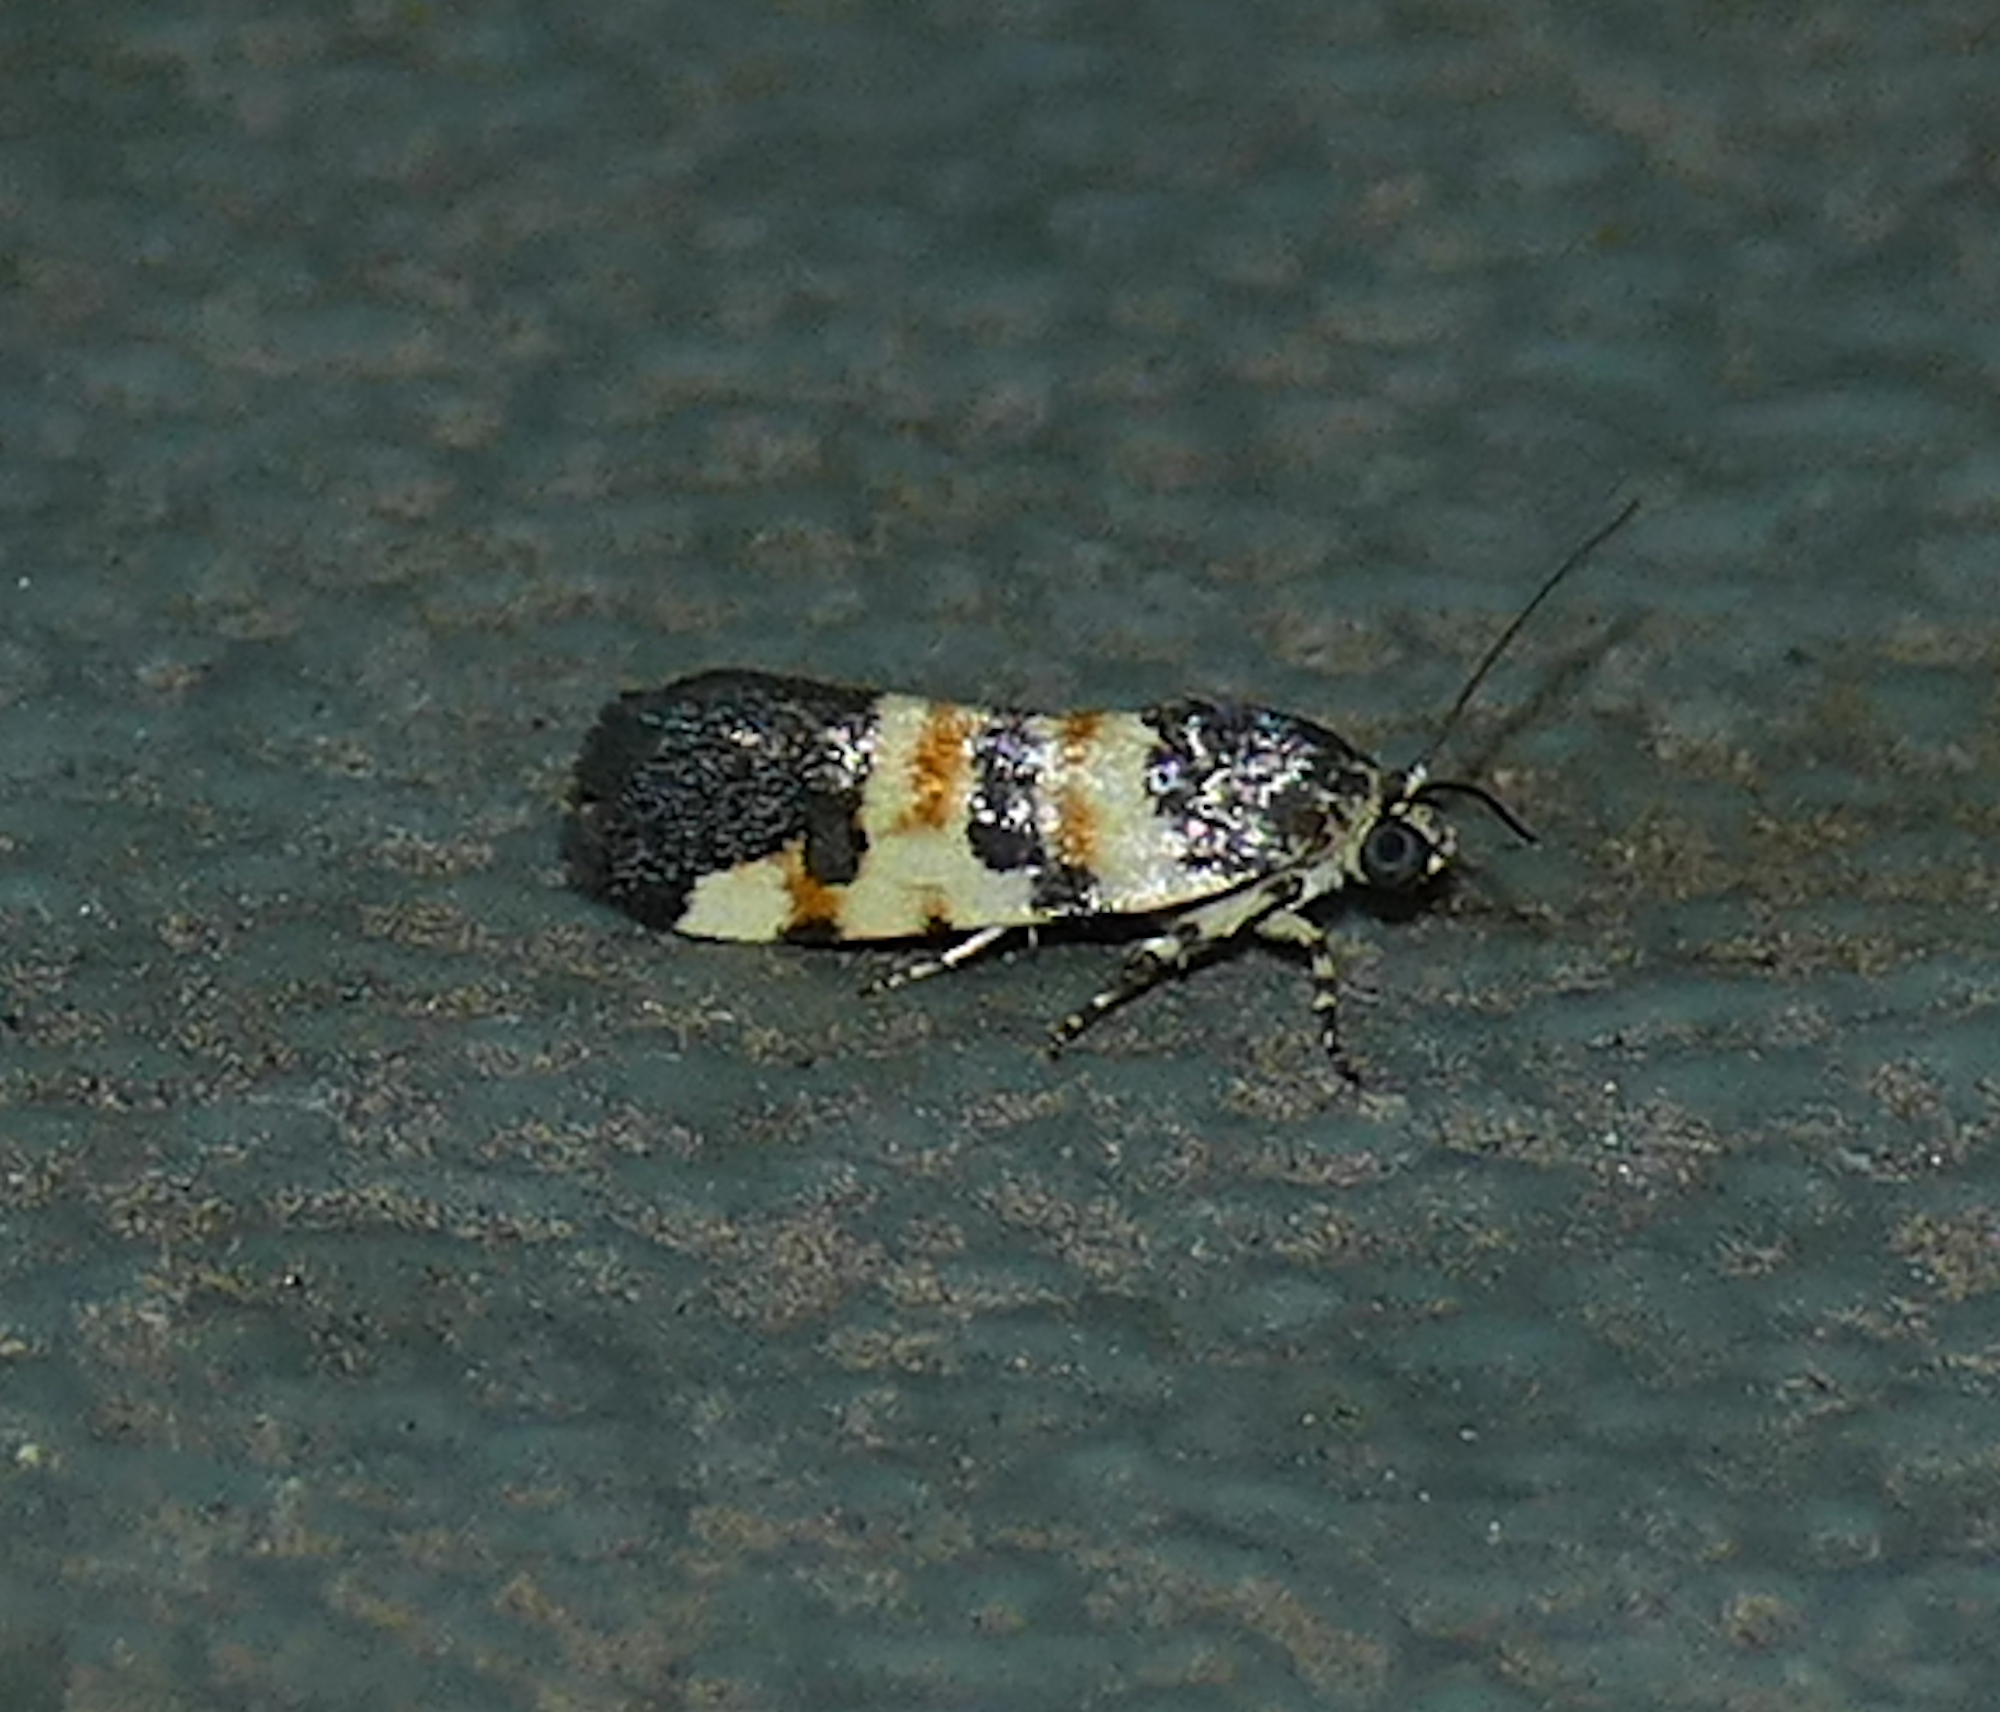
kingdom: Animalia
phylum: Arthropoda
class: Insecta
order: Lepidoptera
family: Noctuidae
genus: Spragueia
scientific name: Spragueia funeralis
